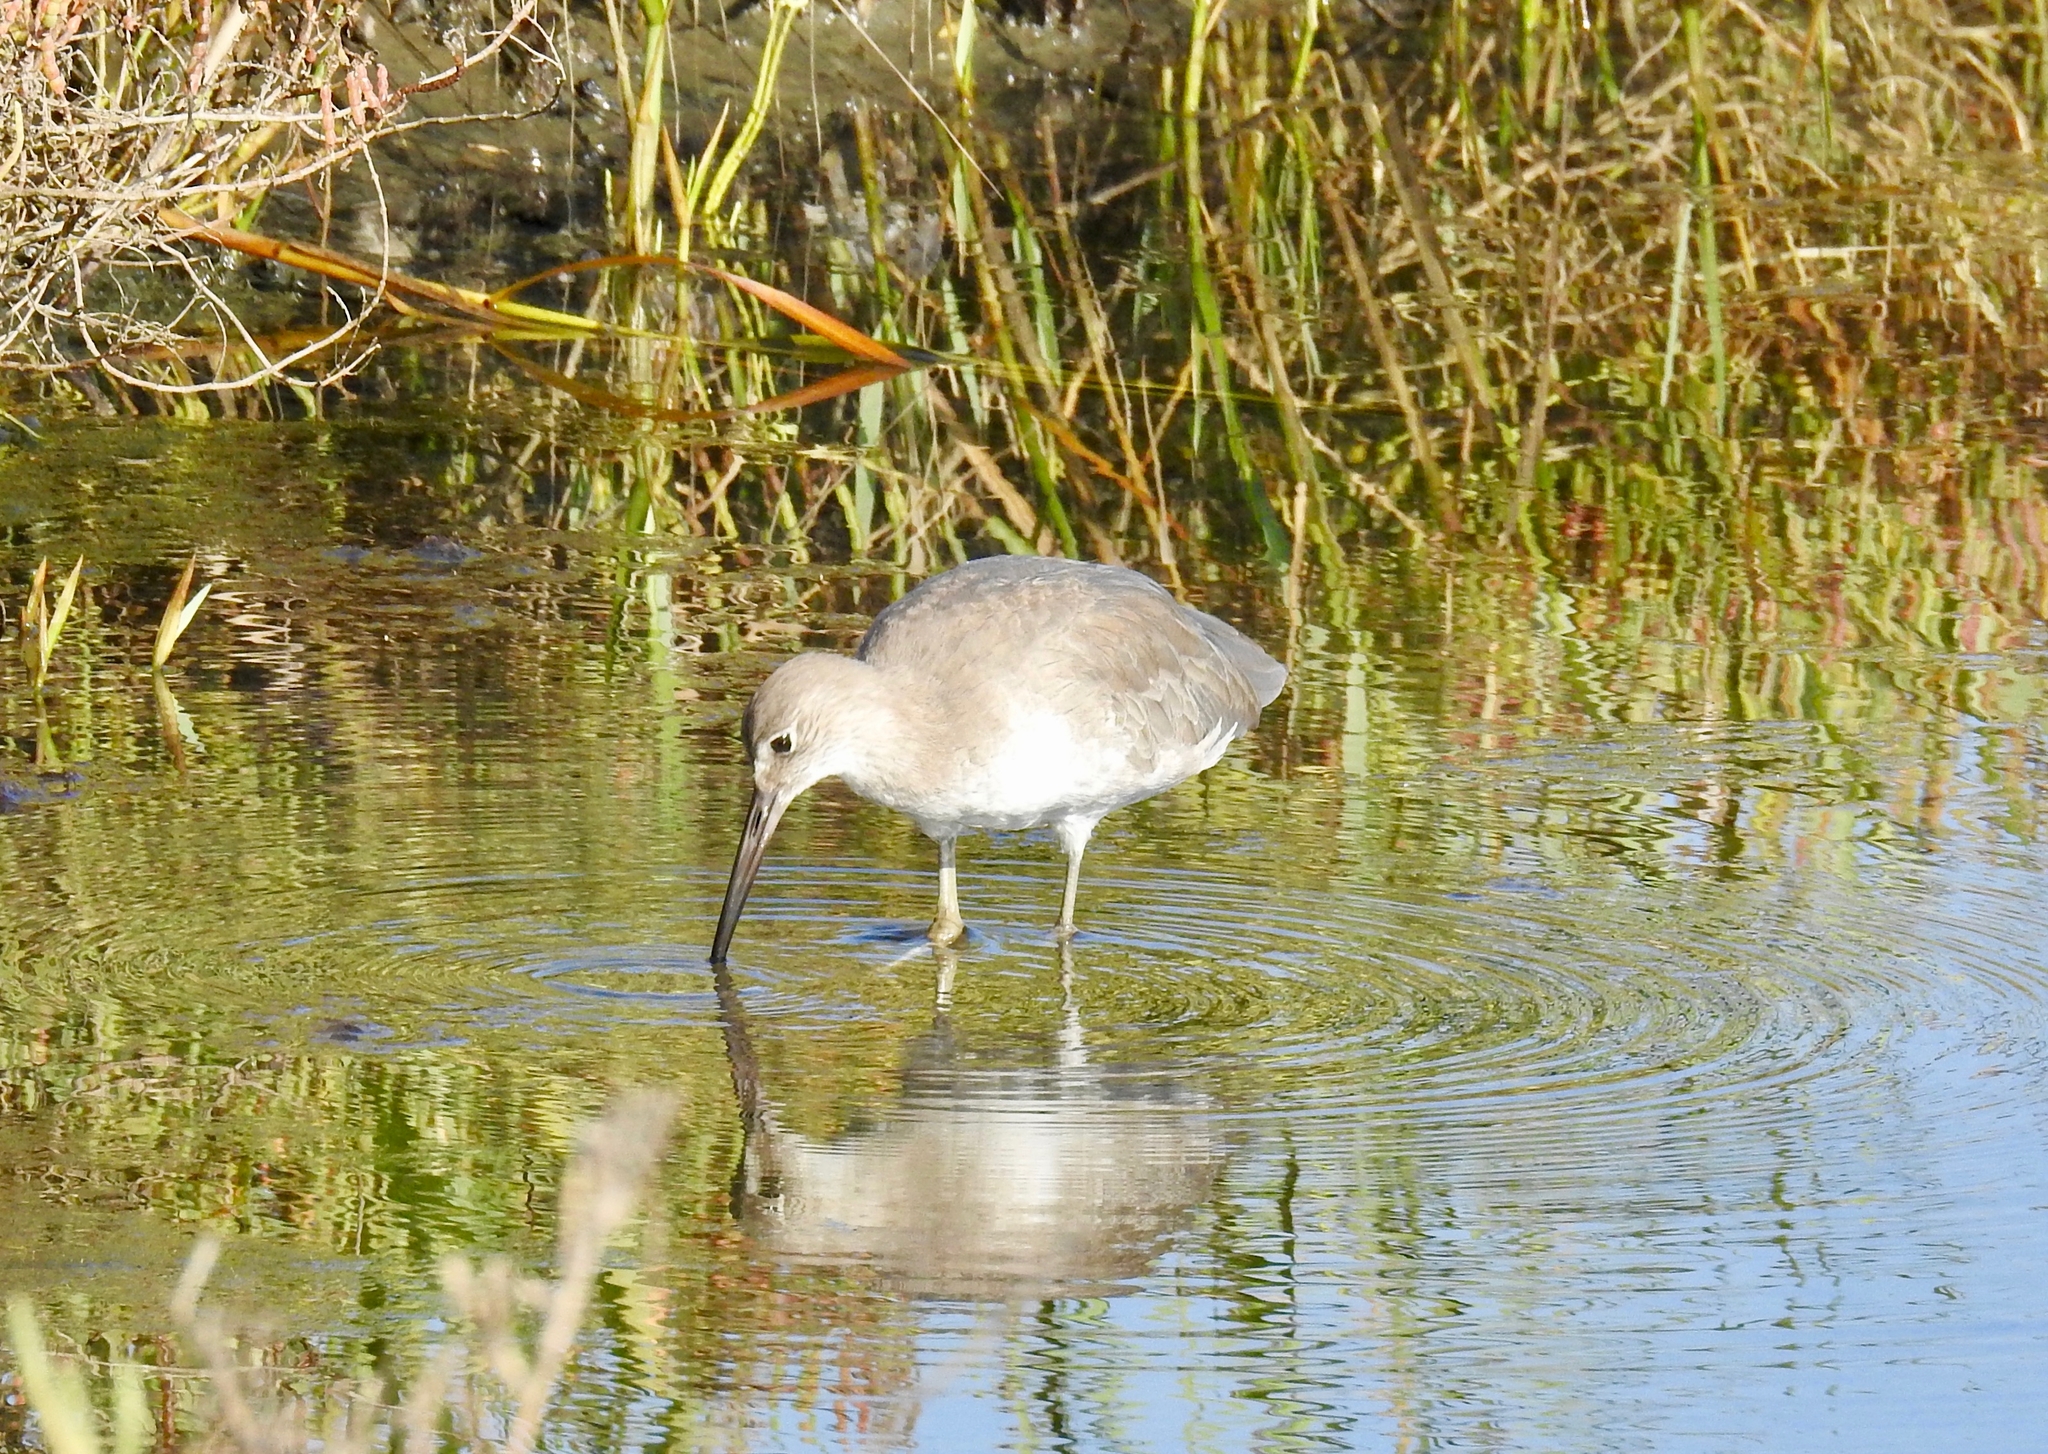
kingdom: Animalia
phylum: Chordata
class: Aves
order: Charadriiformes
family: Scolopacidae
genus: Tringa
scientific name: Tringa semipalmata
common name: Willet
